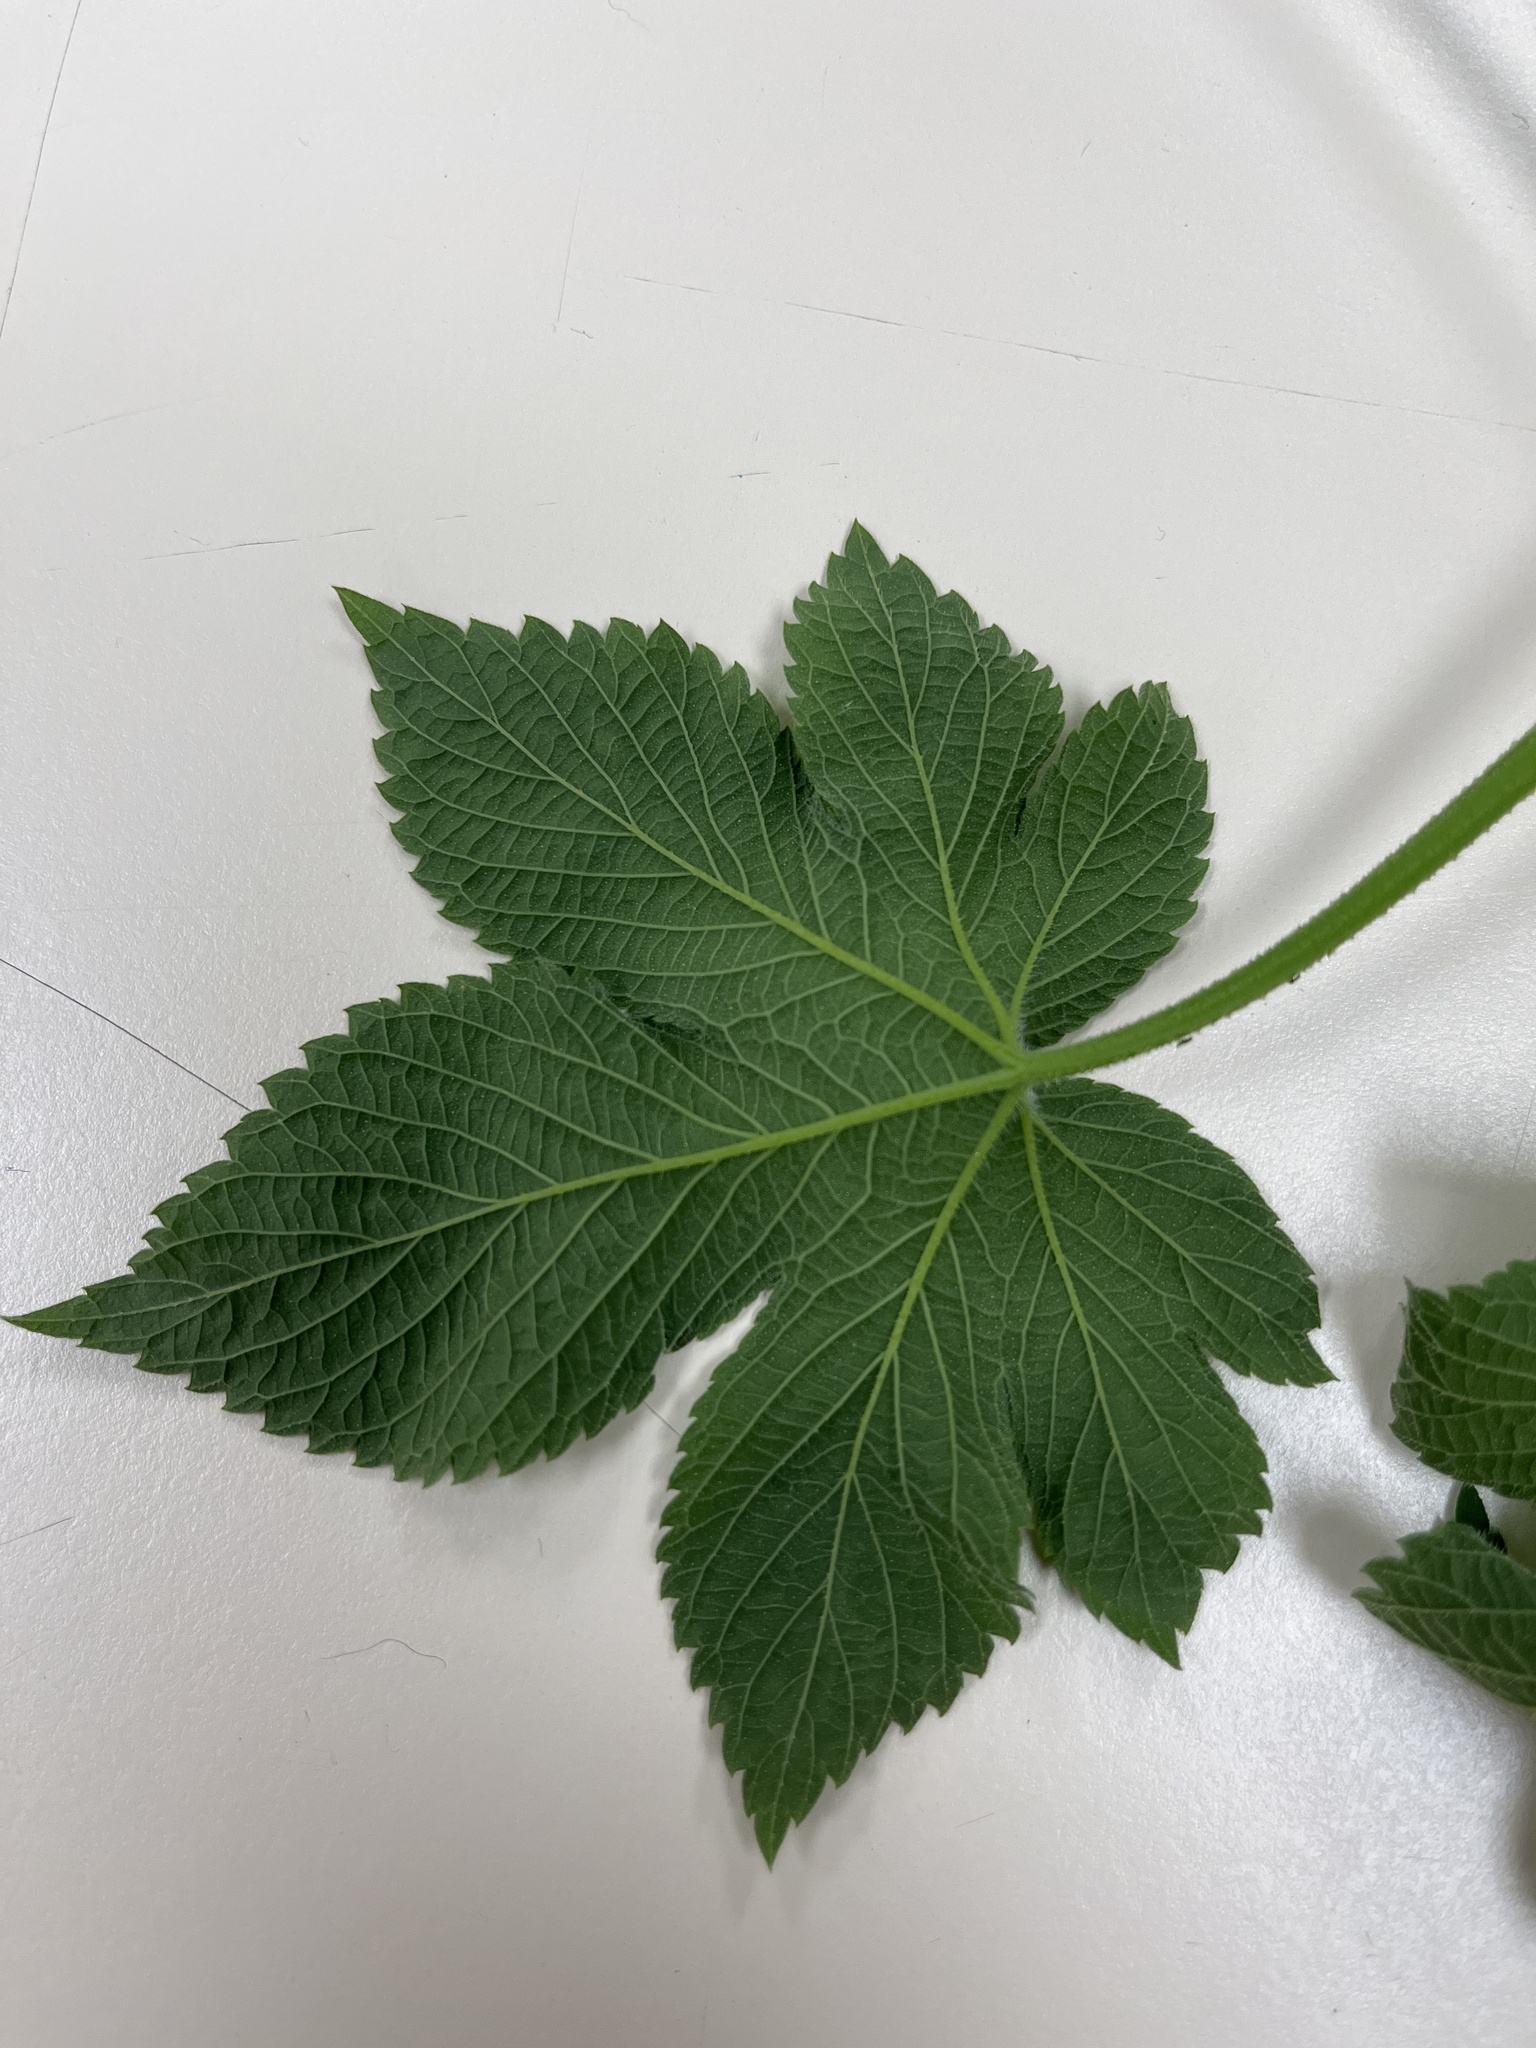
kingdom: Plantae
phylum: Tracheophyta
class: Magnoliopsida
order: Rosales
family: Cannabaceae
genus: Humulus
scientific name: Humulus scandens
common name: Japanese hop
